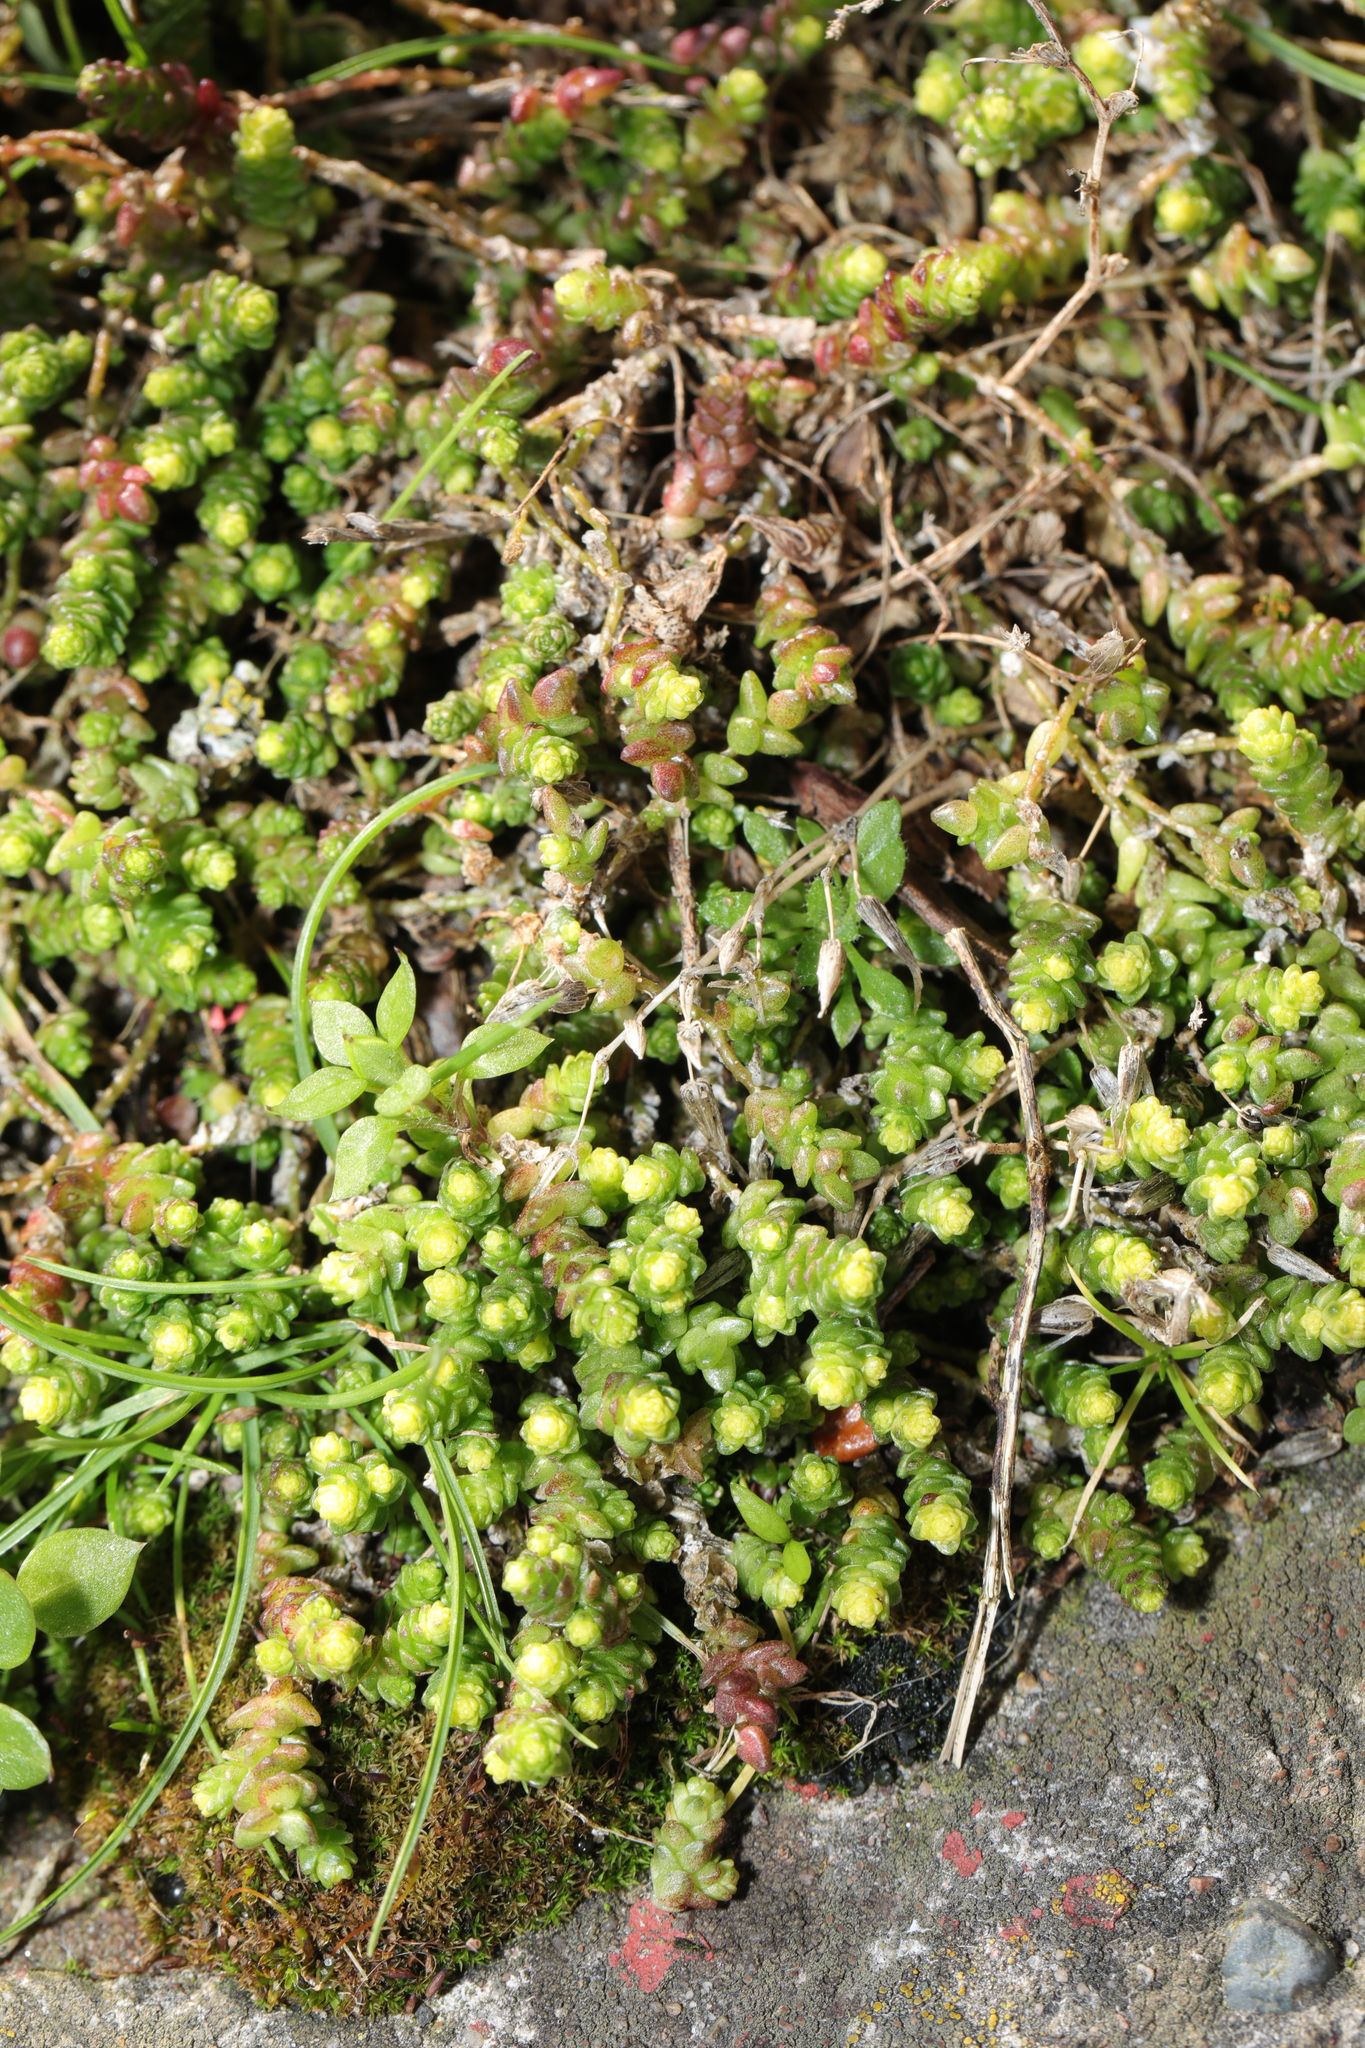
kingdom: Plantae
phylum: Tracheophyta
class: Magnoliopsida
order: Saxifragales
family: Crassulaceae
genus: Sedum
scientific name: Sedum acre
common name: Biting stonecrop
